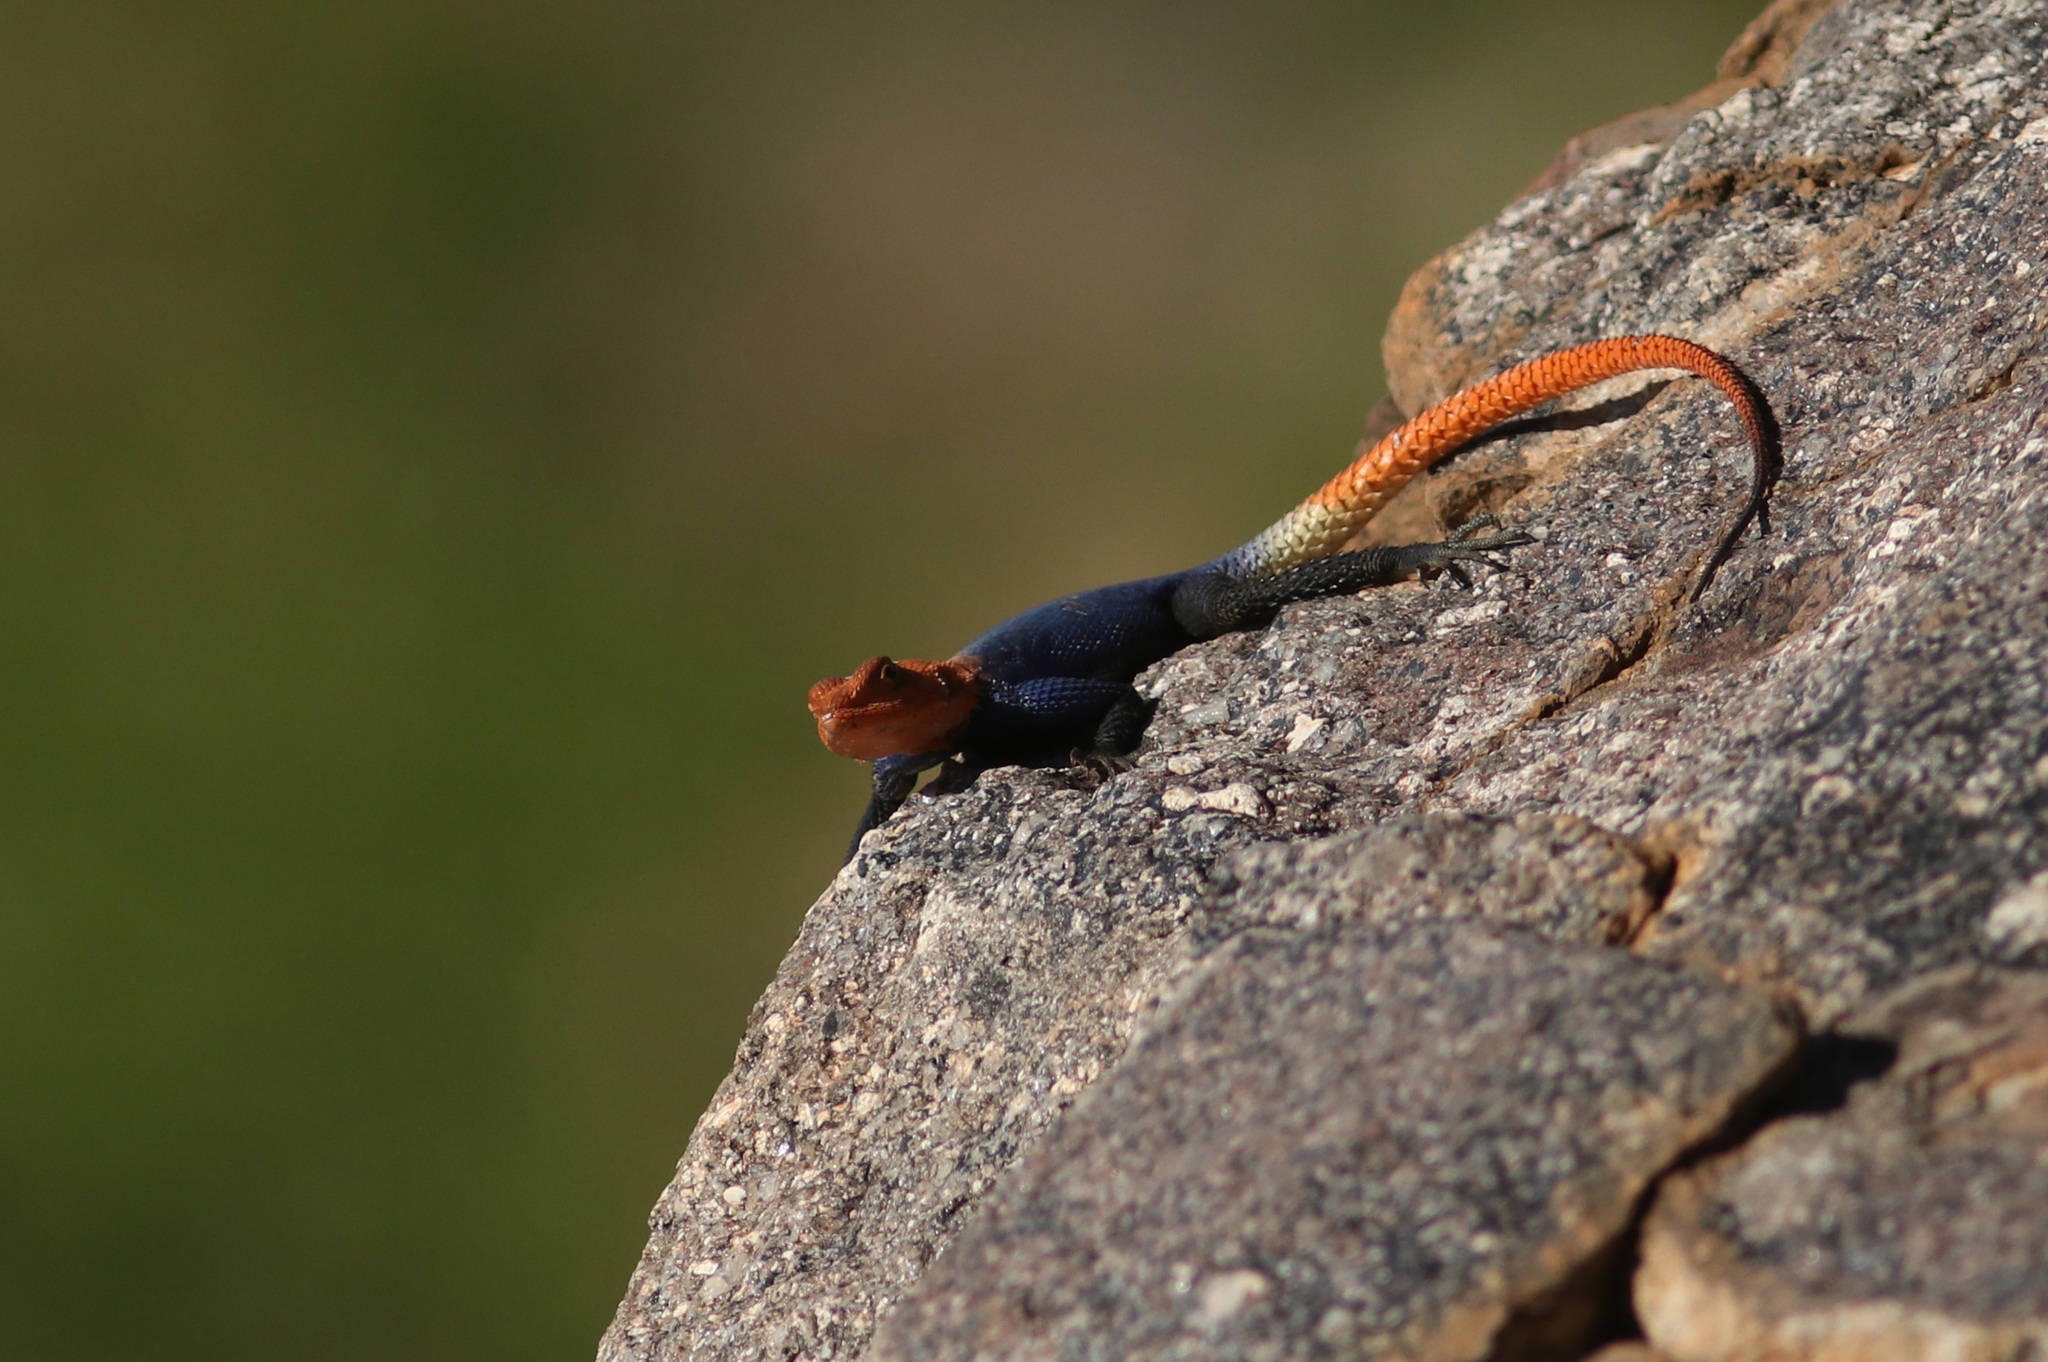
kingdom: Animalia
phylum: Chordata
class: Squamata
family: Agamidae
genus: Agama
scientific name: Agama planiceps
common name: Namib rock agama
